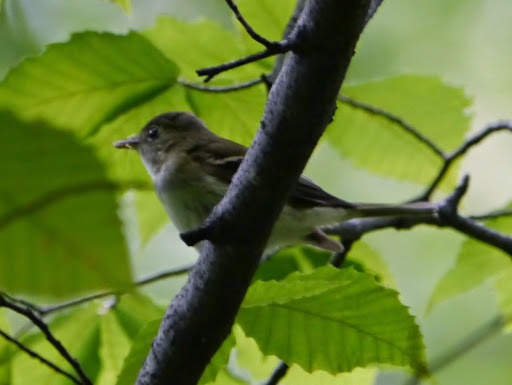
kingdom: Animalia
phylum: Chordata
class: Aves
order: Passeriformes
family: Tyrannidae
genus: Empidonax
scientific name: Empidonax
